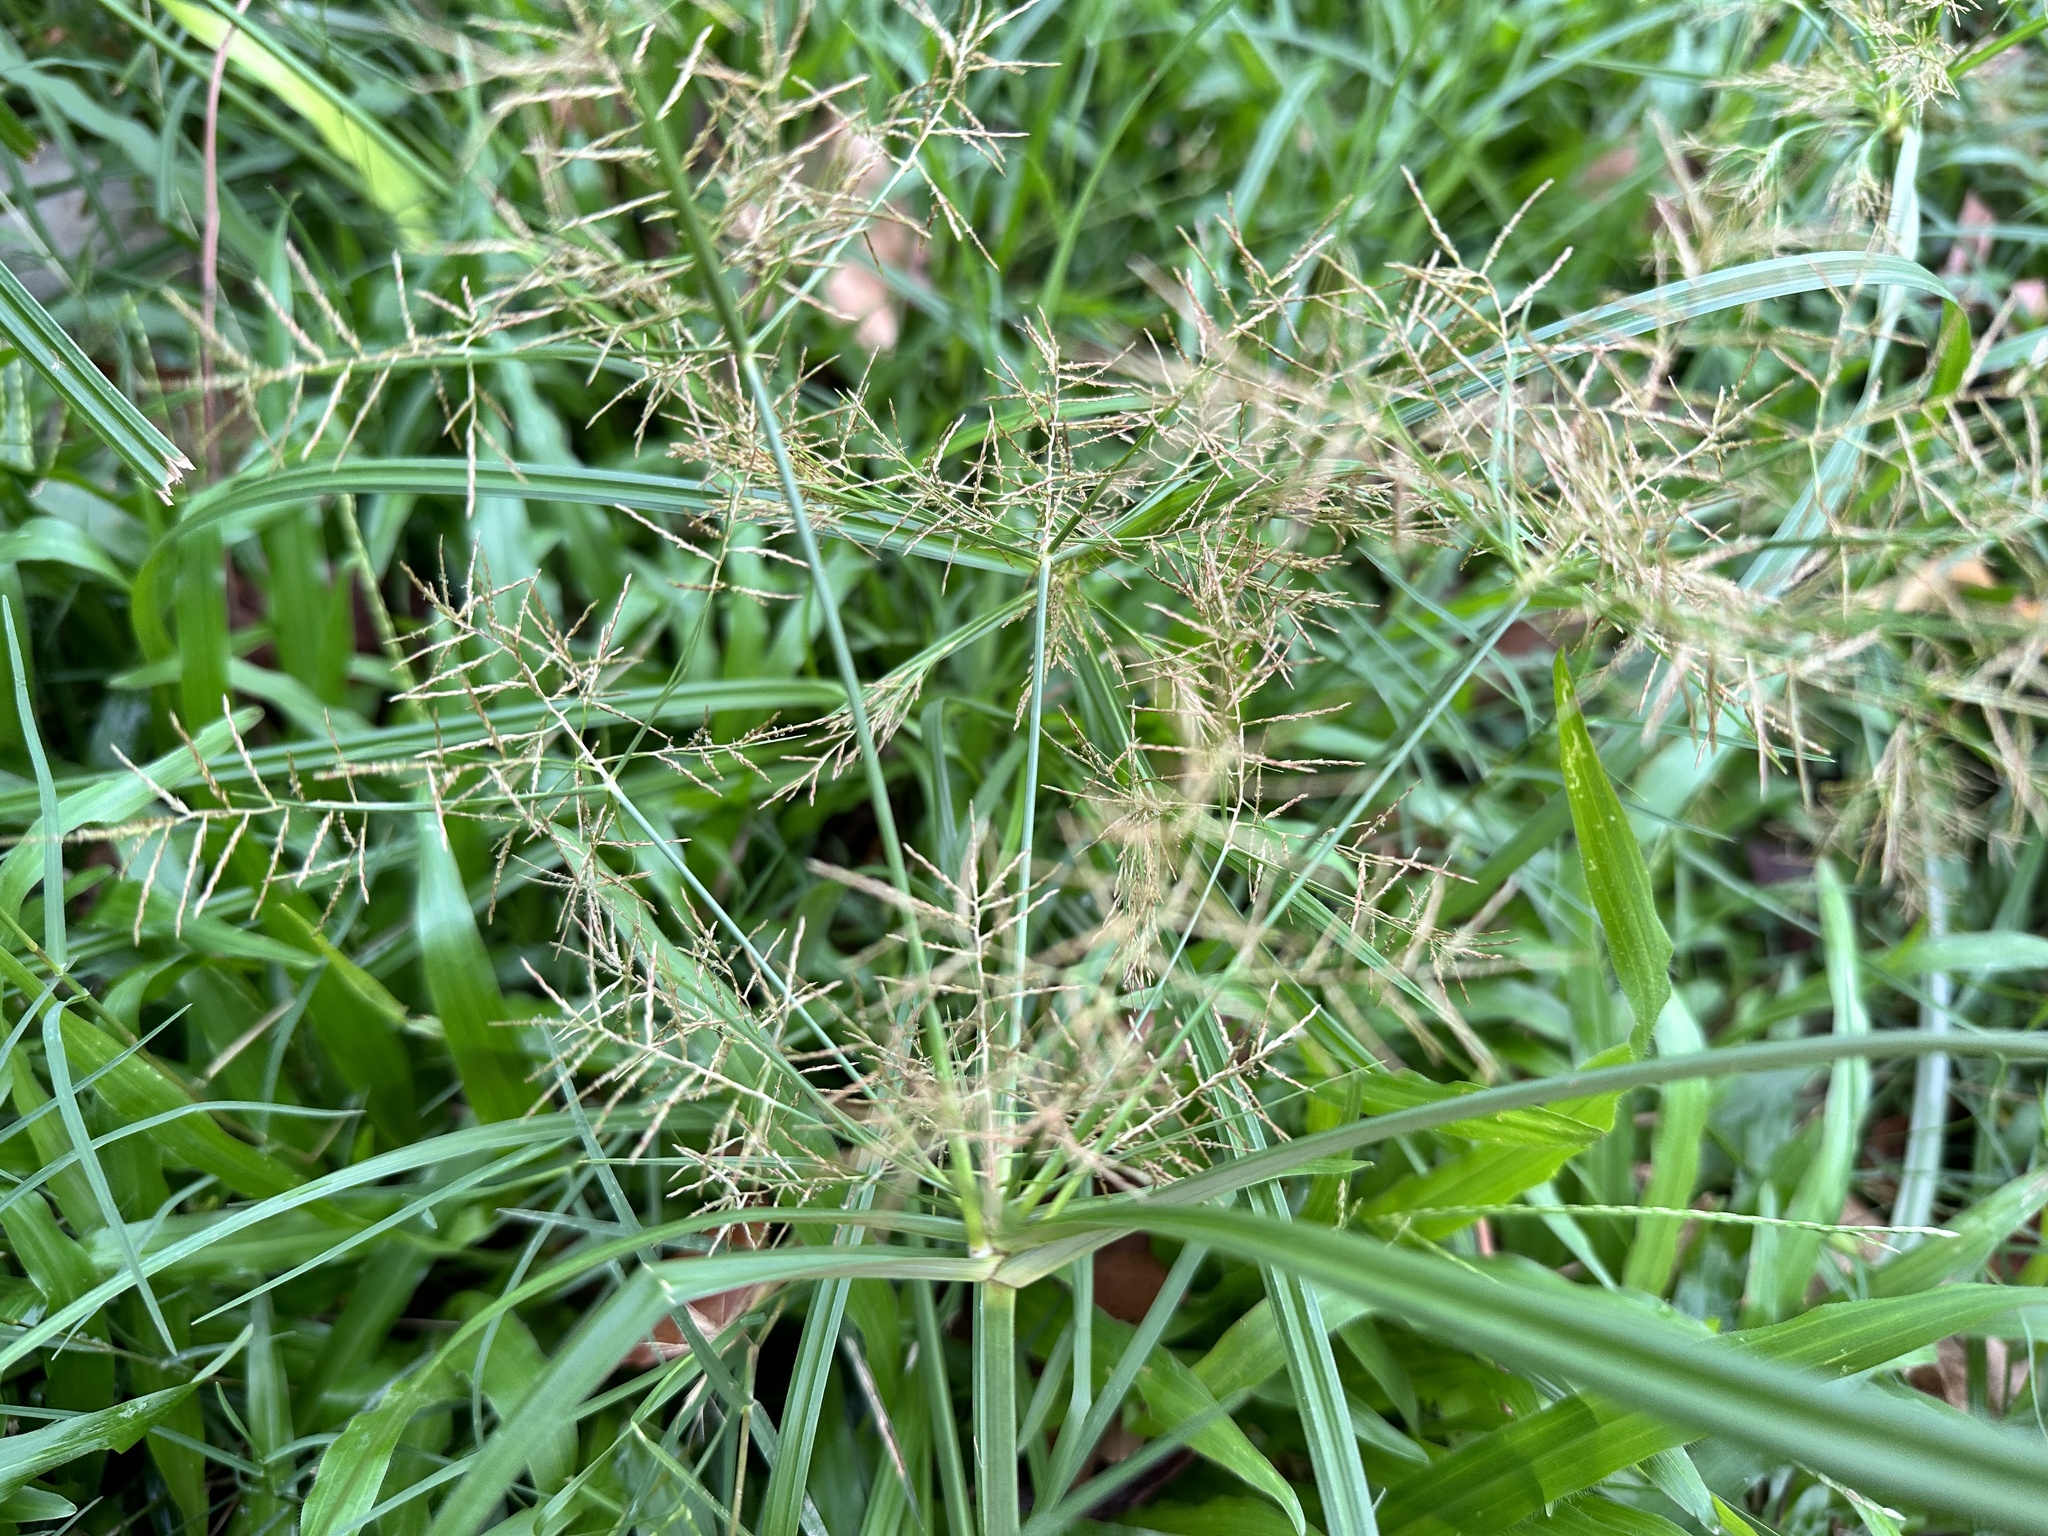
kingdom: Plantae
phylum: Tracheophyta
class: Liliopsida
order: Poales
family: Cyperaceae
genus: Cyperus
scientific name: Cyperus distans
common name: Slender cyperus
